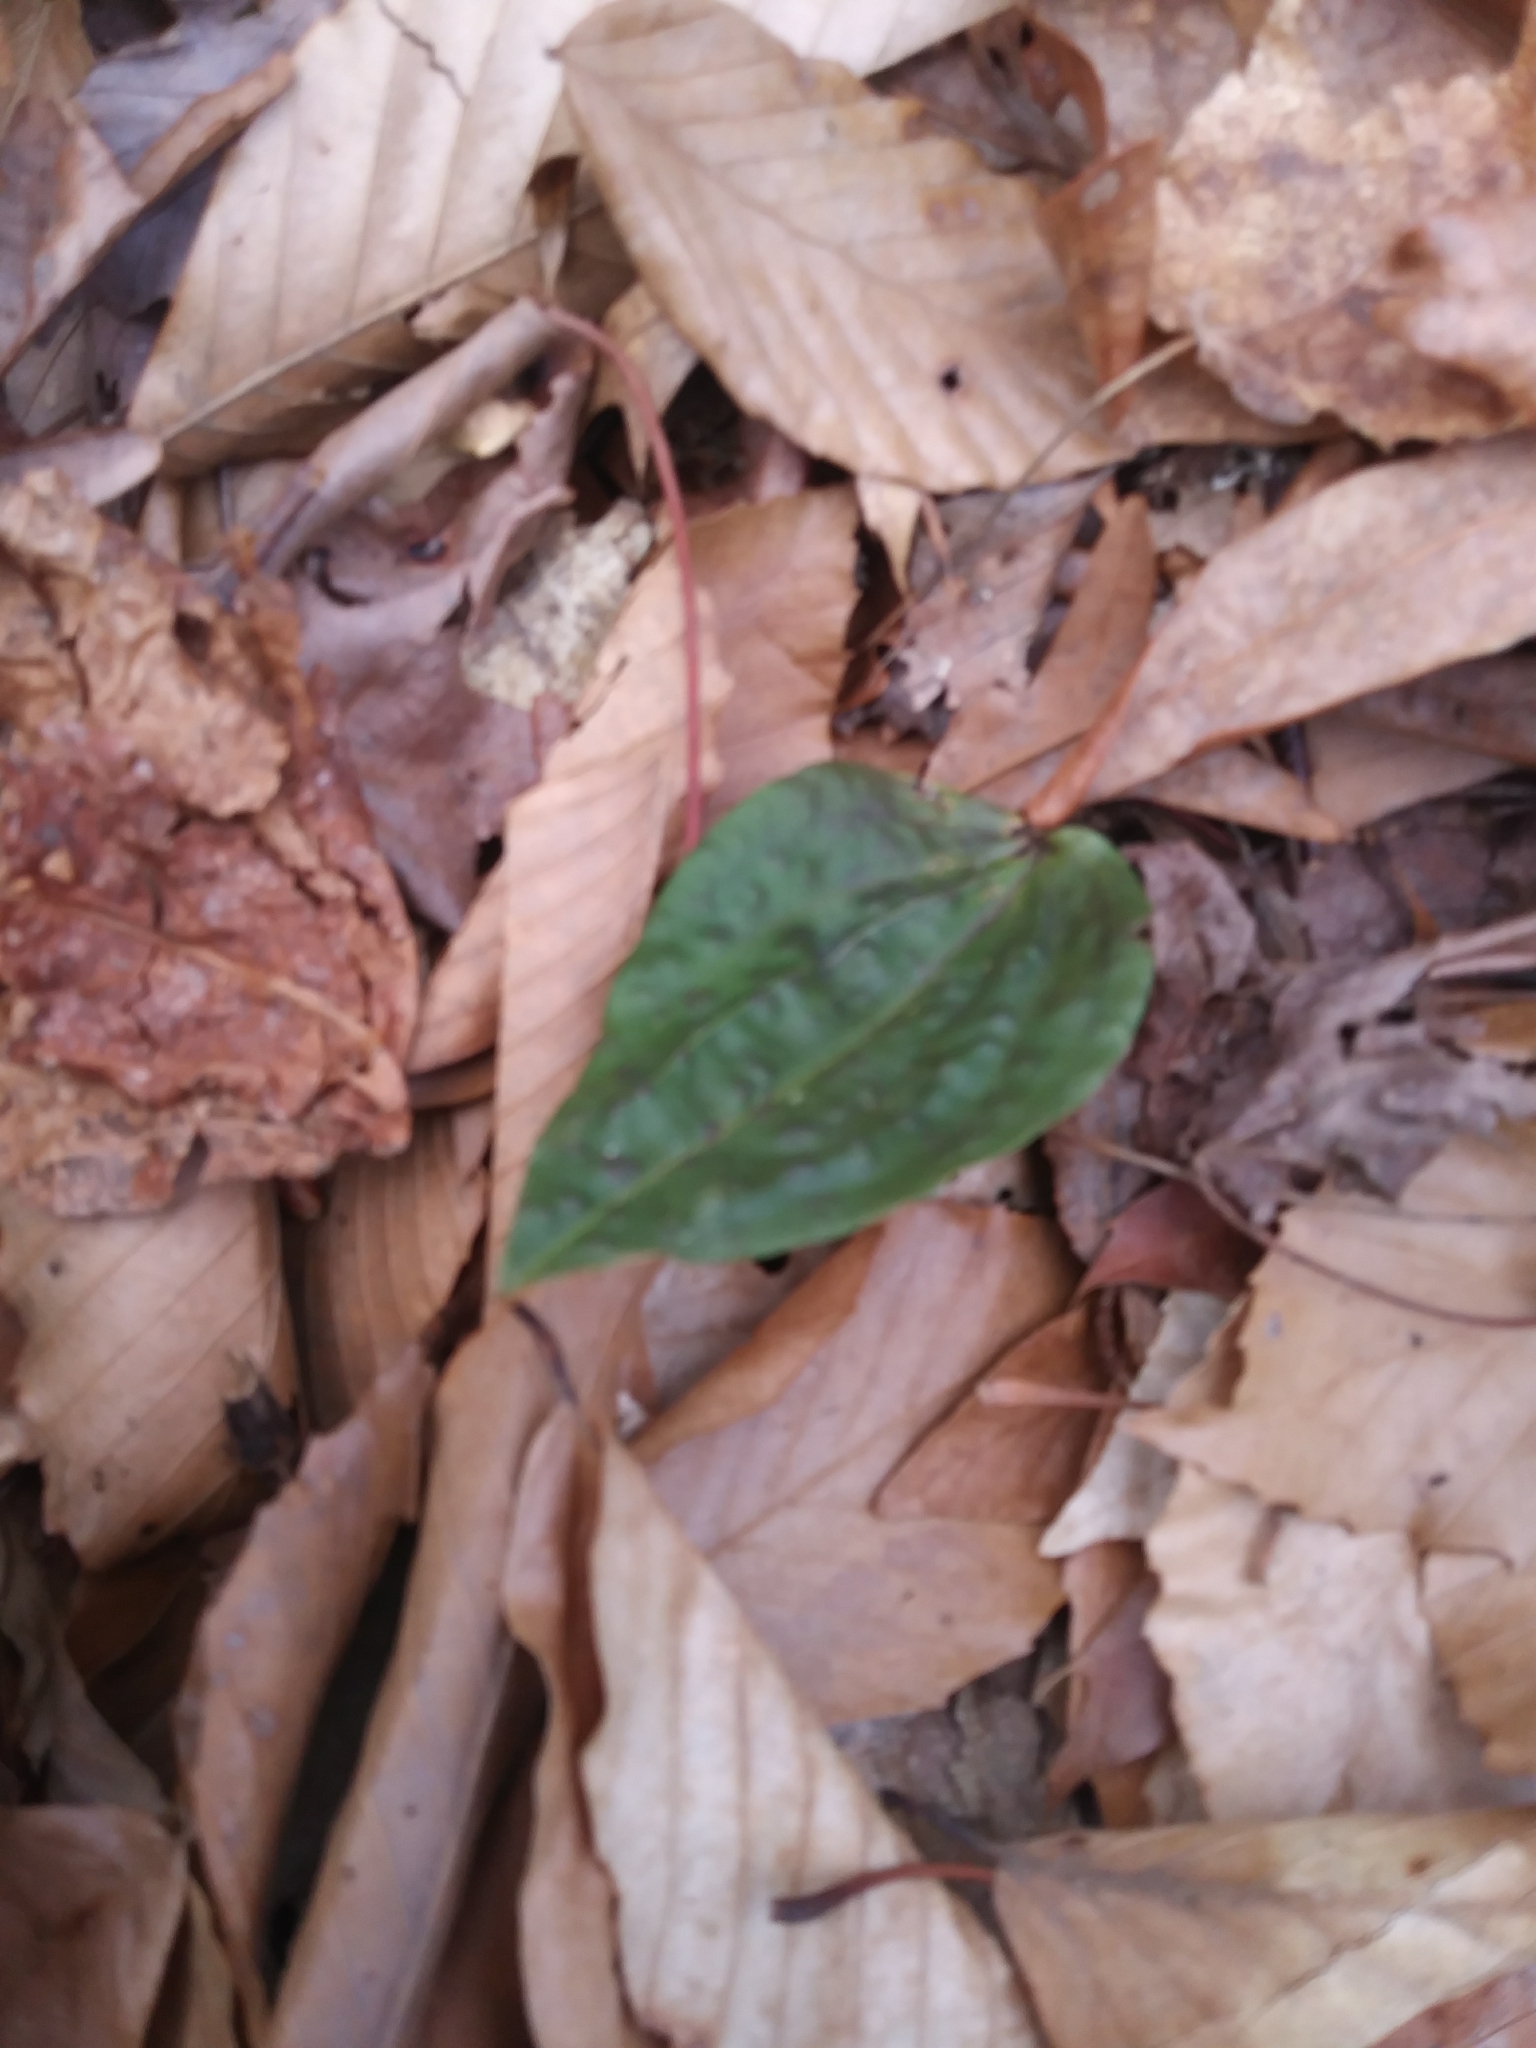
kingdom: Plantae
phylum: Tracheophyta
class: Liliopsida
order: Asparagales
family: Orchidaceae
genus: Tipularia
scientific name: Tipularia discolor
